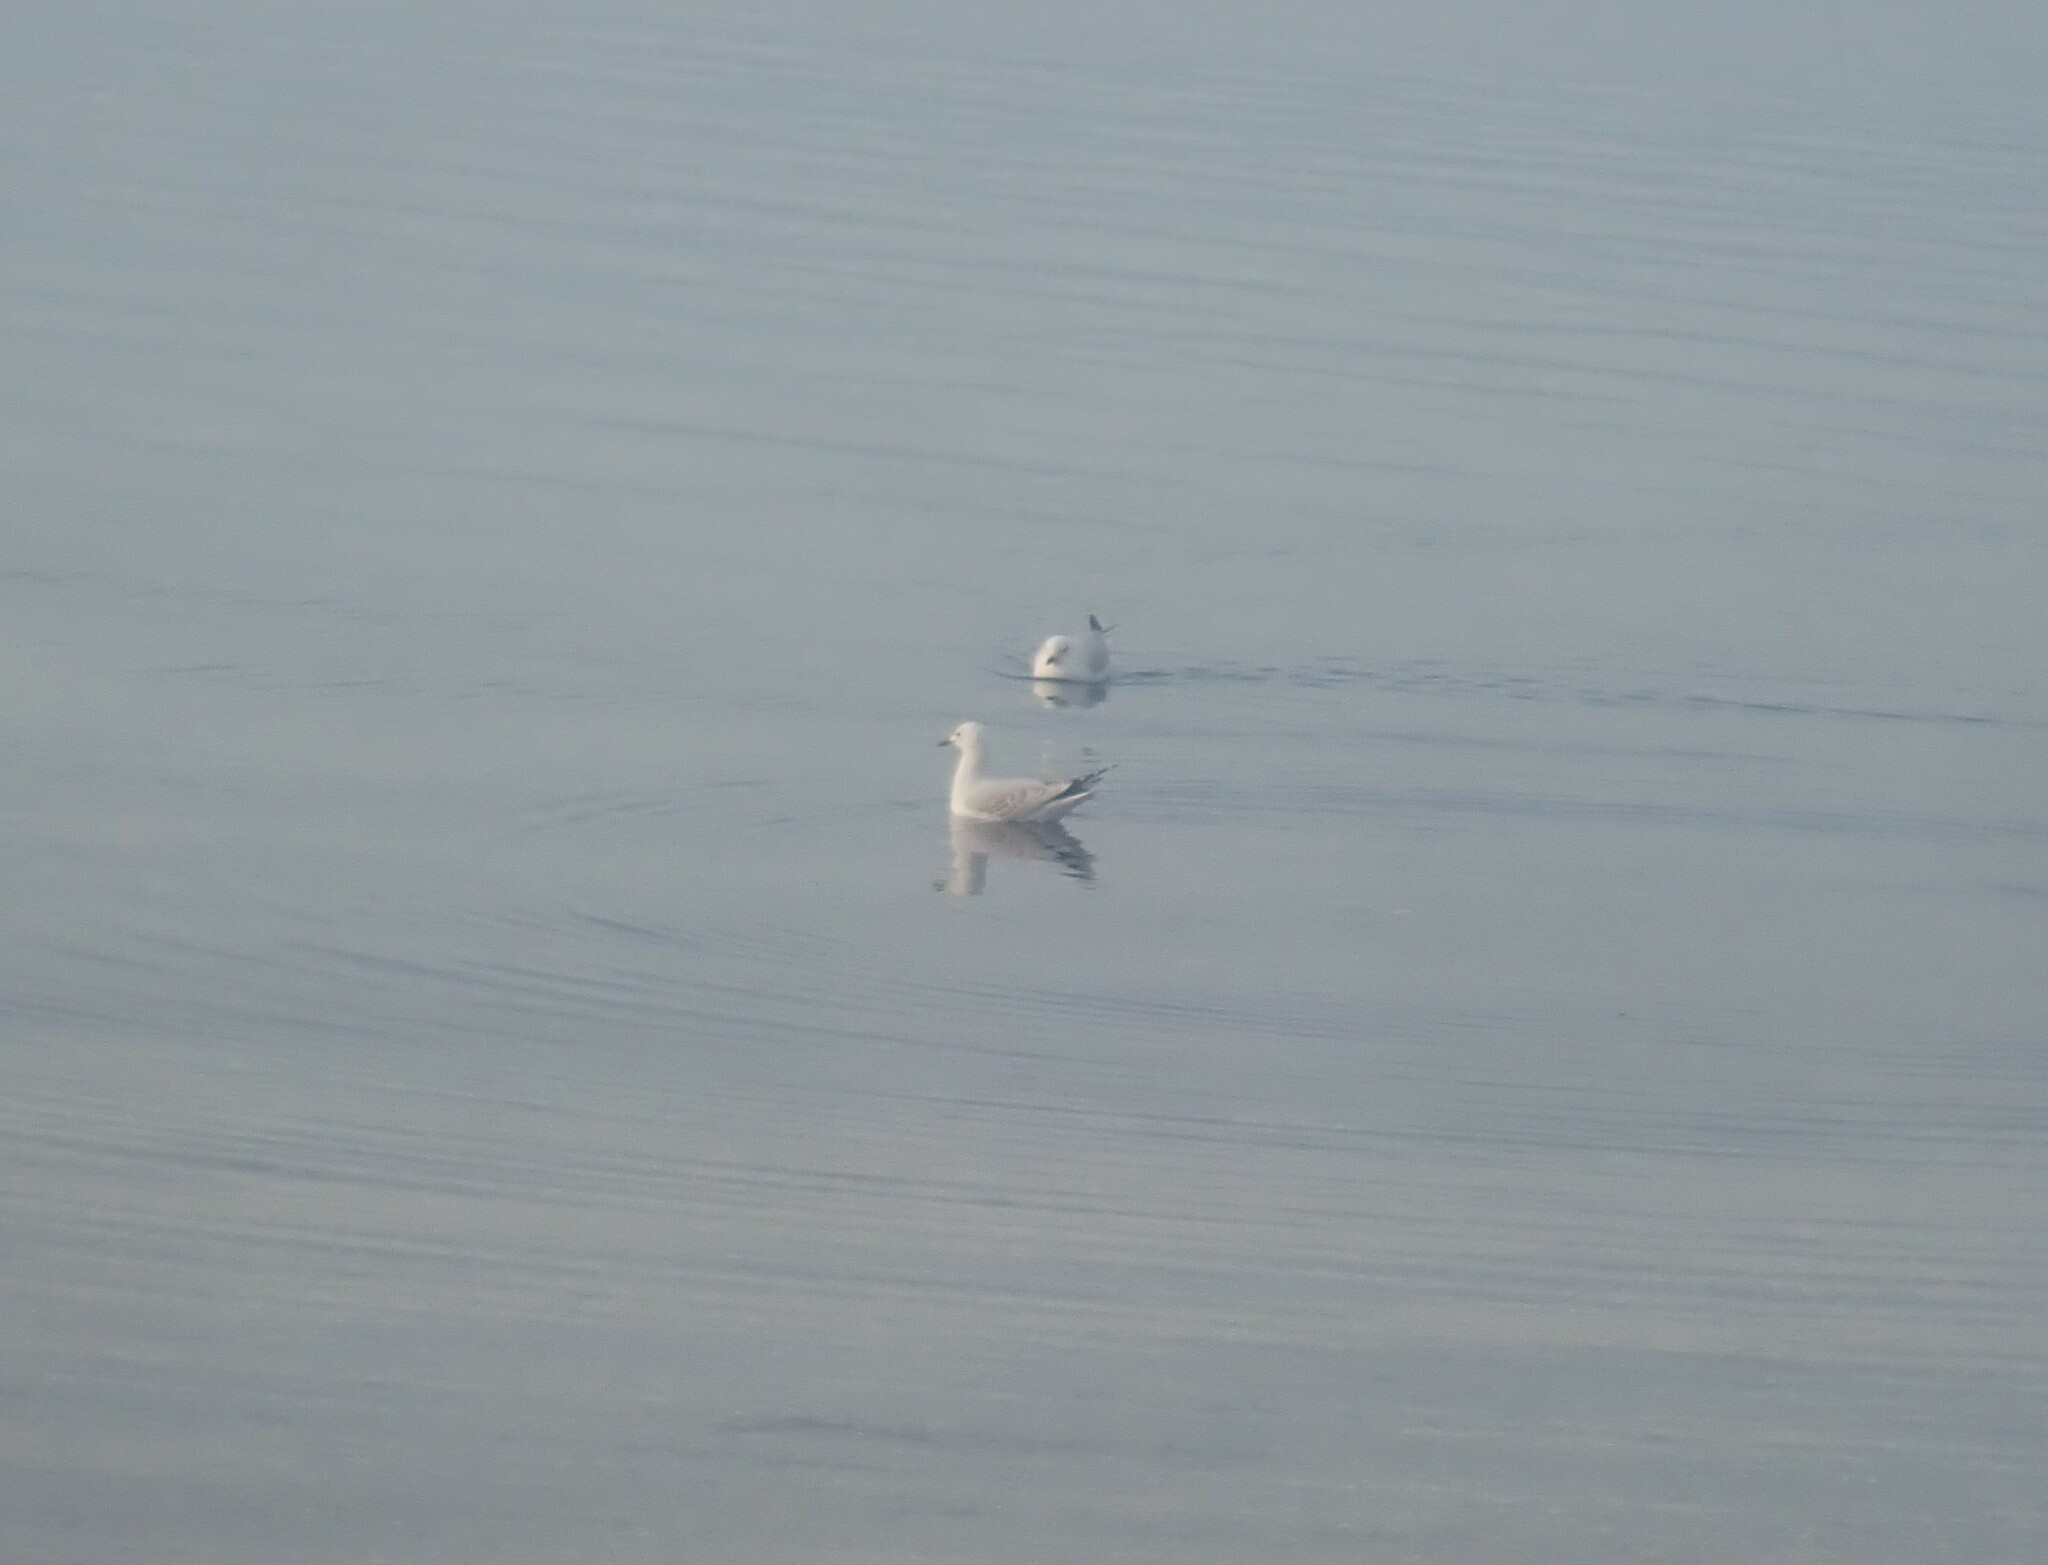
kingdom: Animalia
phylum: Chordata
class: Aves
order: Charadriiformes
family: Laridae
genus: Chroicocephalus
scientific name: Chroicocephalus novaehollandiae
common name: Silver gull
